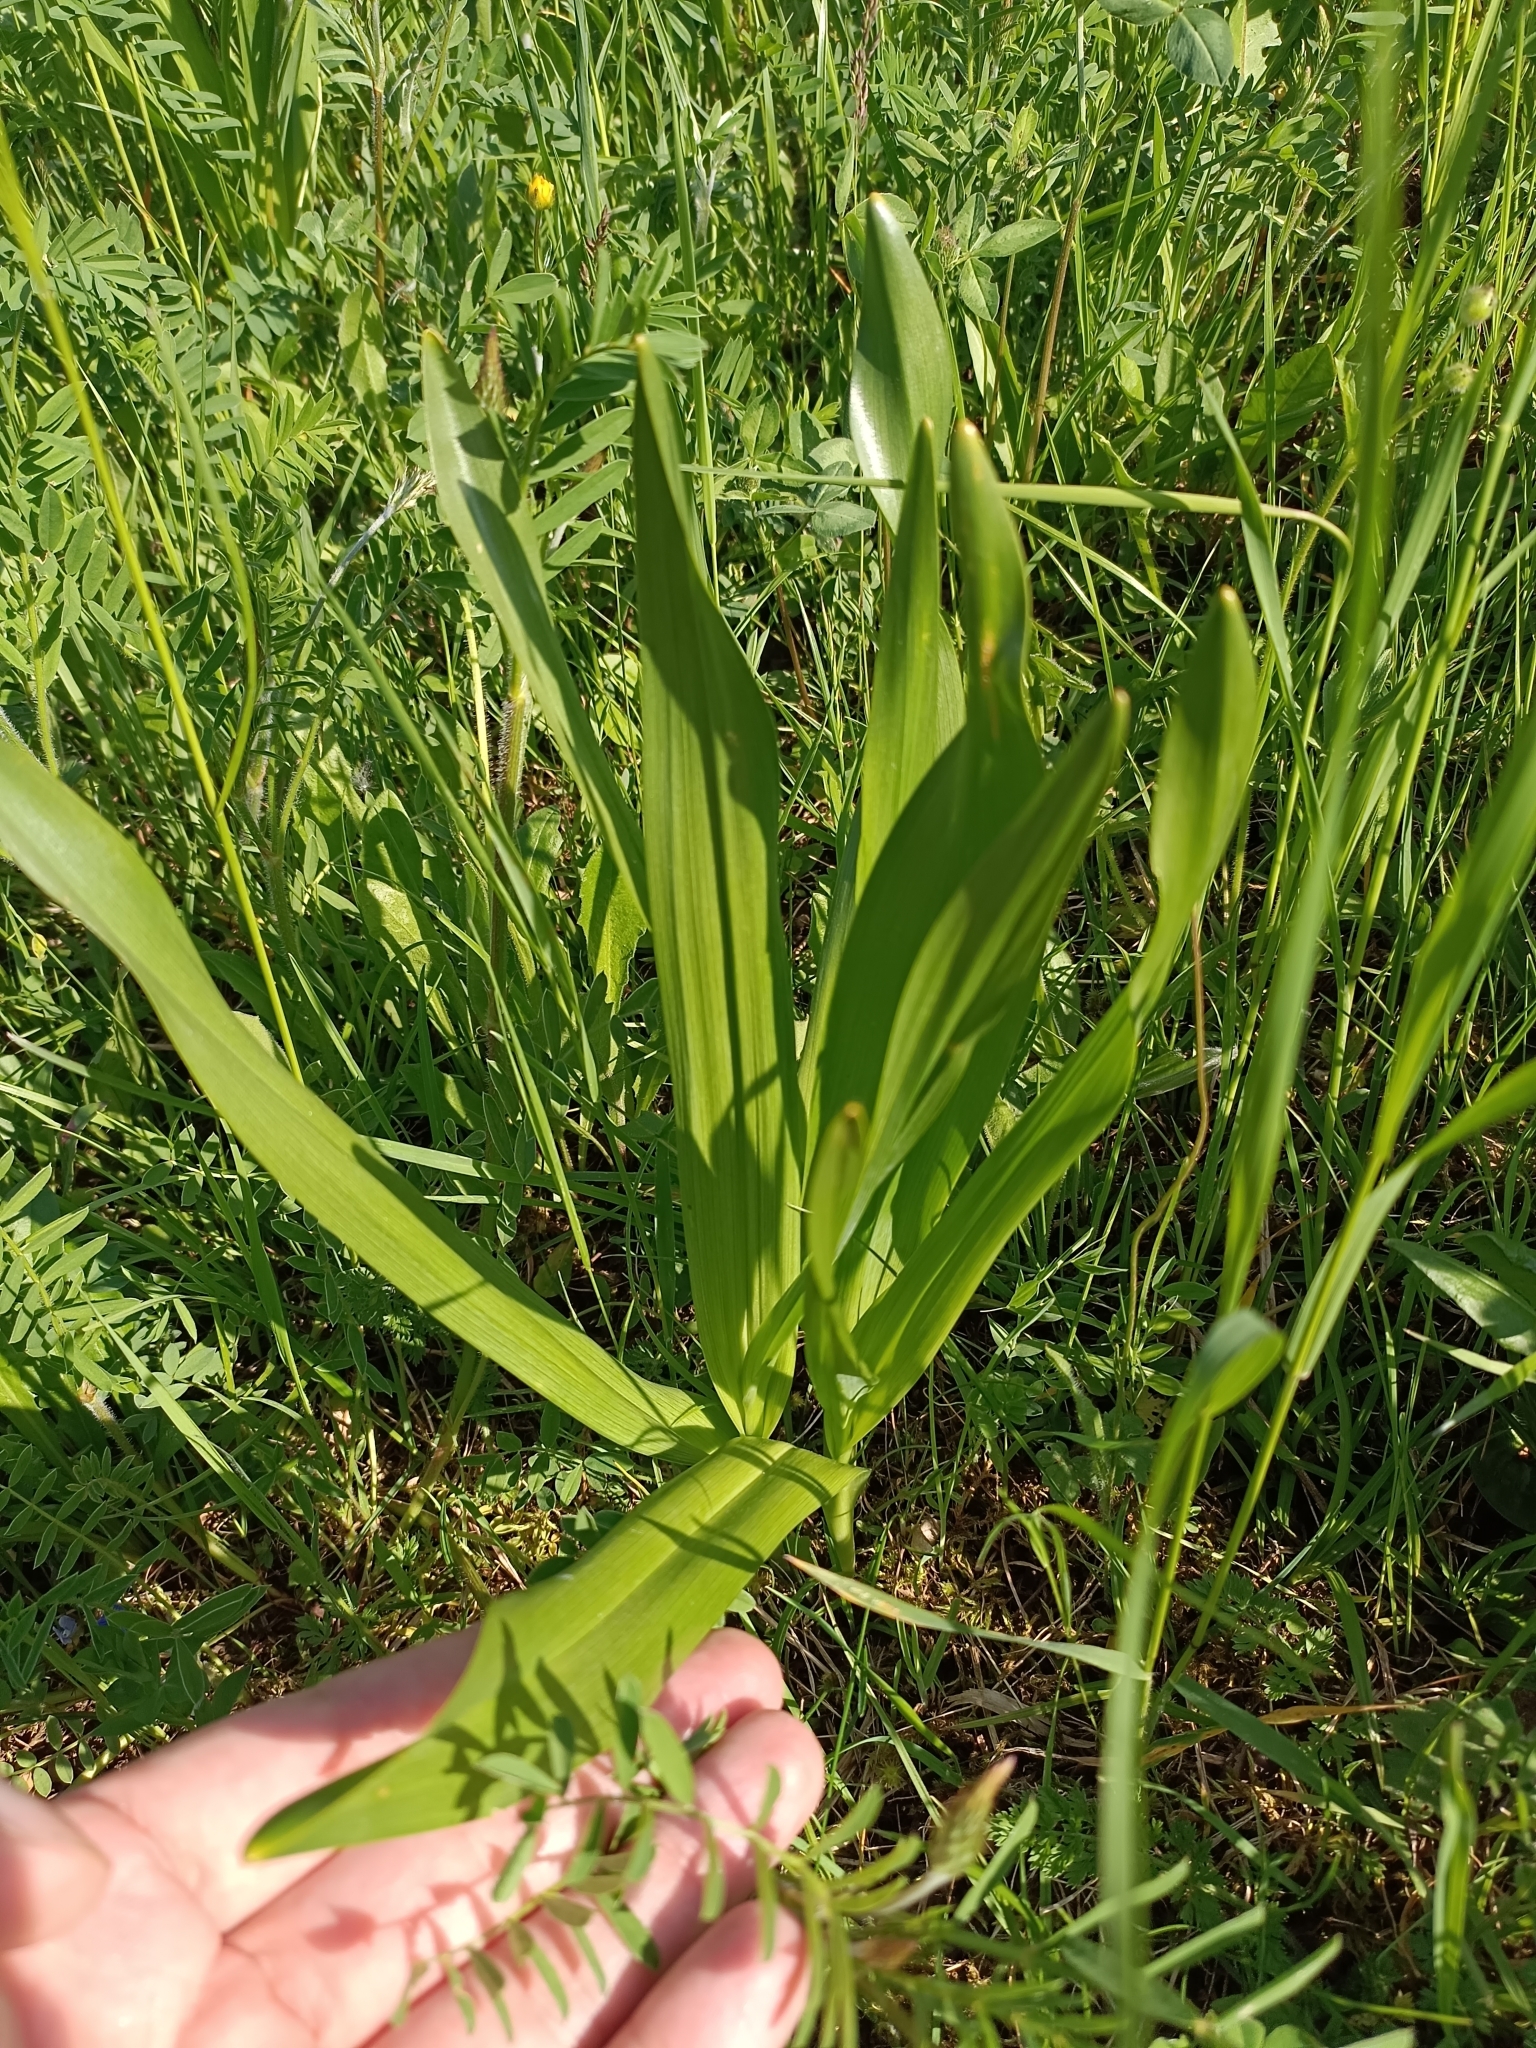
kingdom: Plantae
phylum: Tracheophyta
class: Liliopsida
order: Liliales
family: Colchicaceae
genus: Colchicum
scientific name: Colchicum autumnale
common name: Autumn crocus
